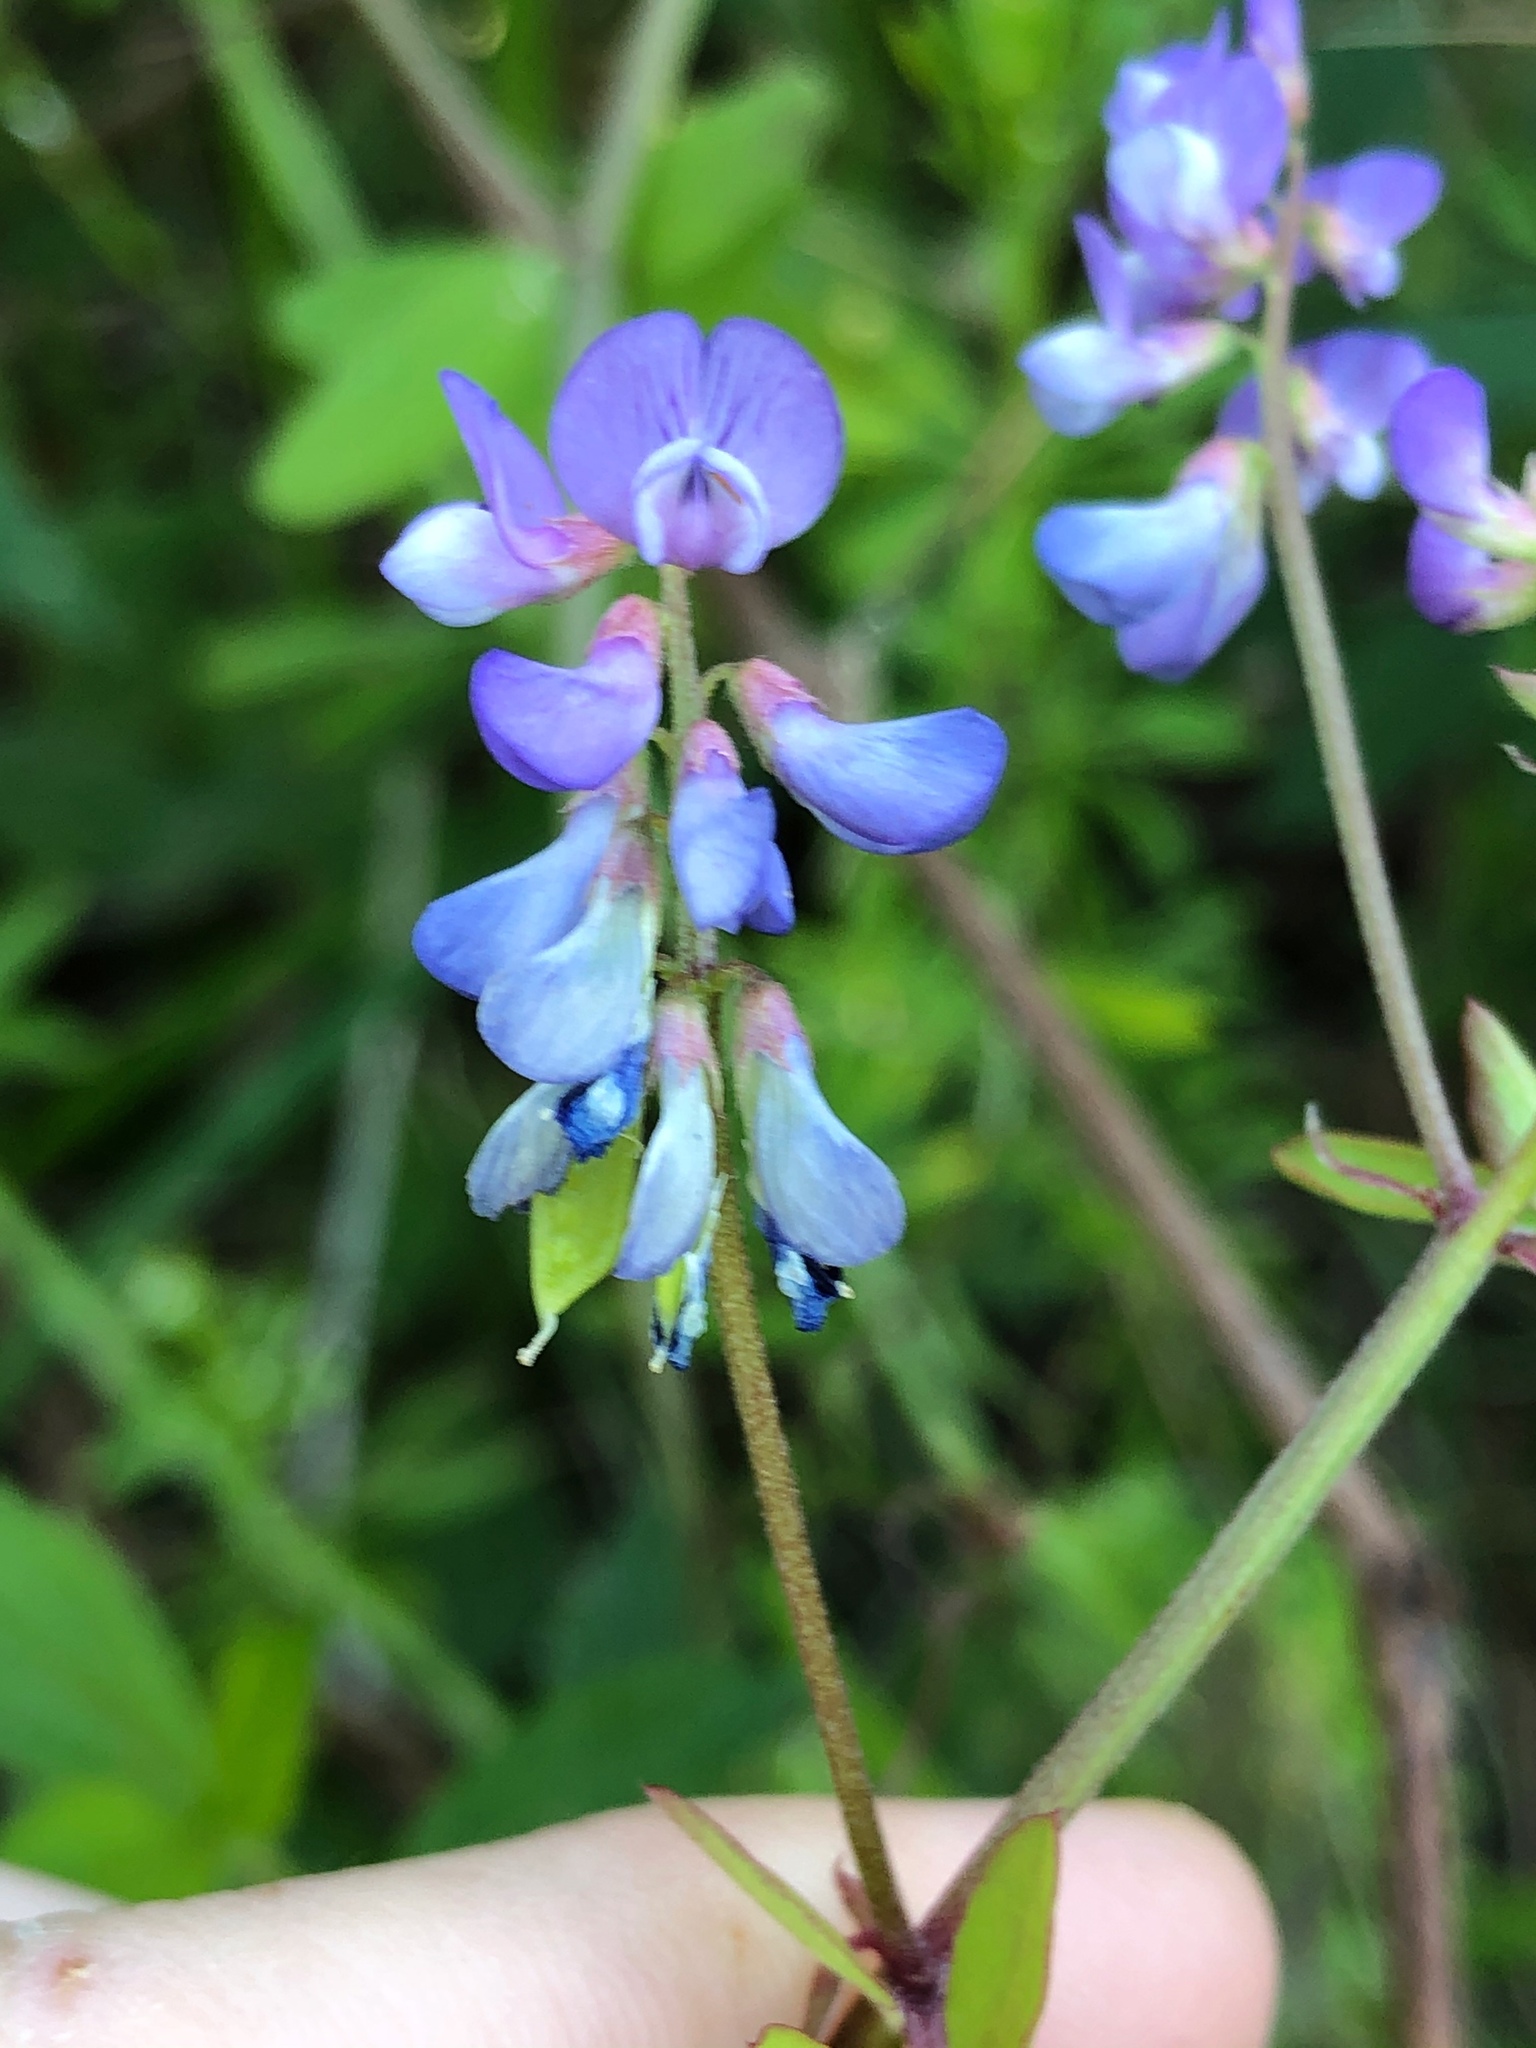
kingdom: Plantae
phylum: Tracheophyta
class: Magnoliopsida
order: Fabales
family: Fabaceae
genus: Vicia
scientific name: Vicia ludoviciana
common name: Louisiana vetch
